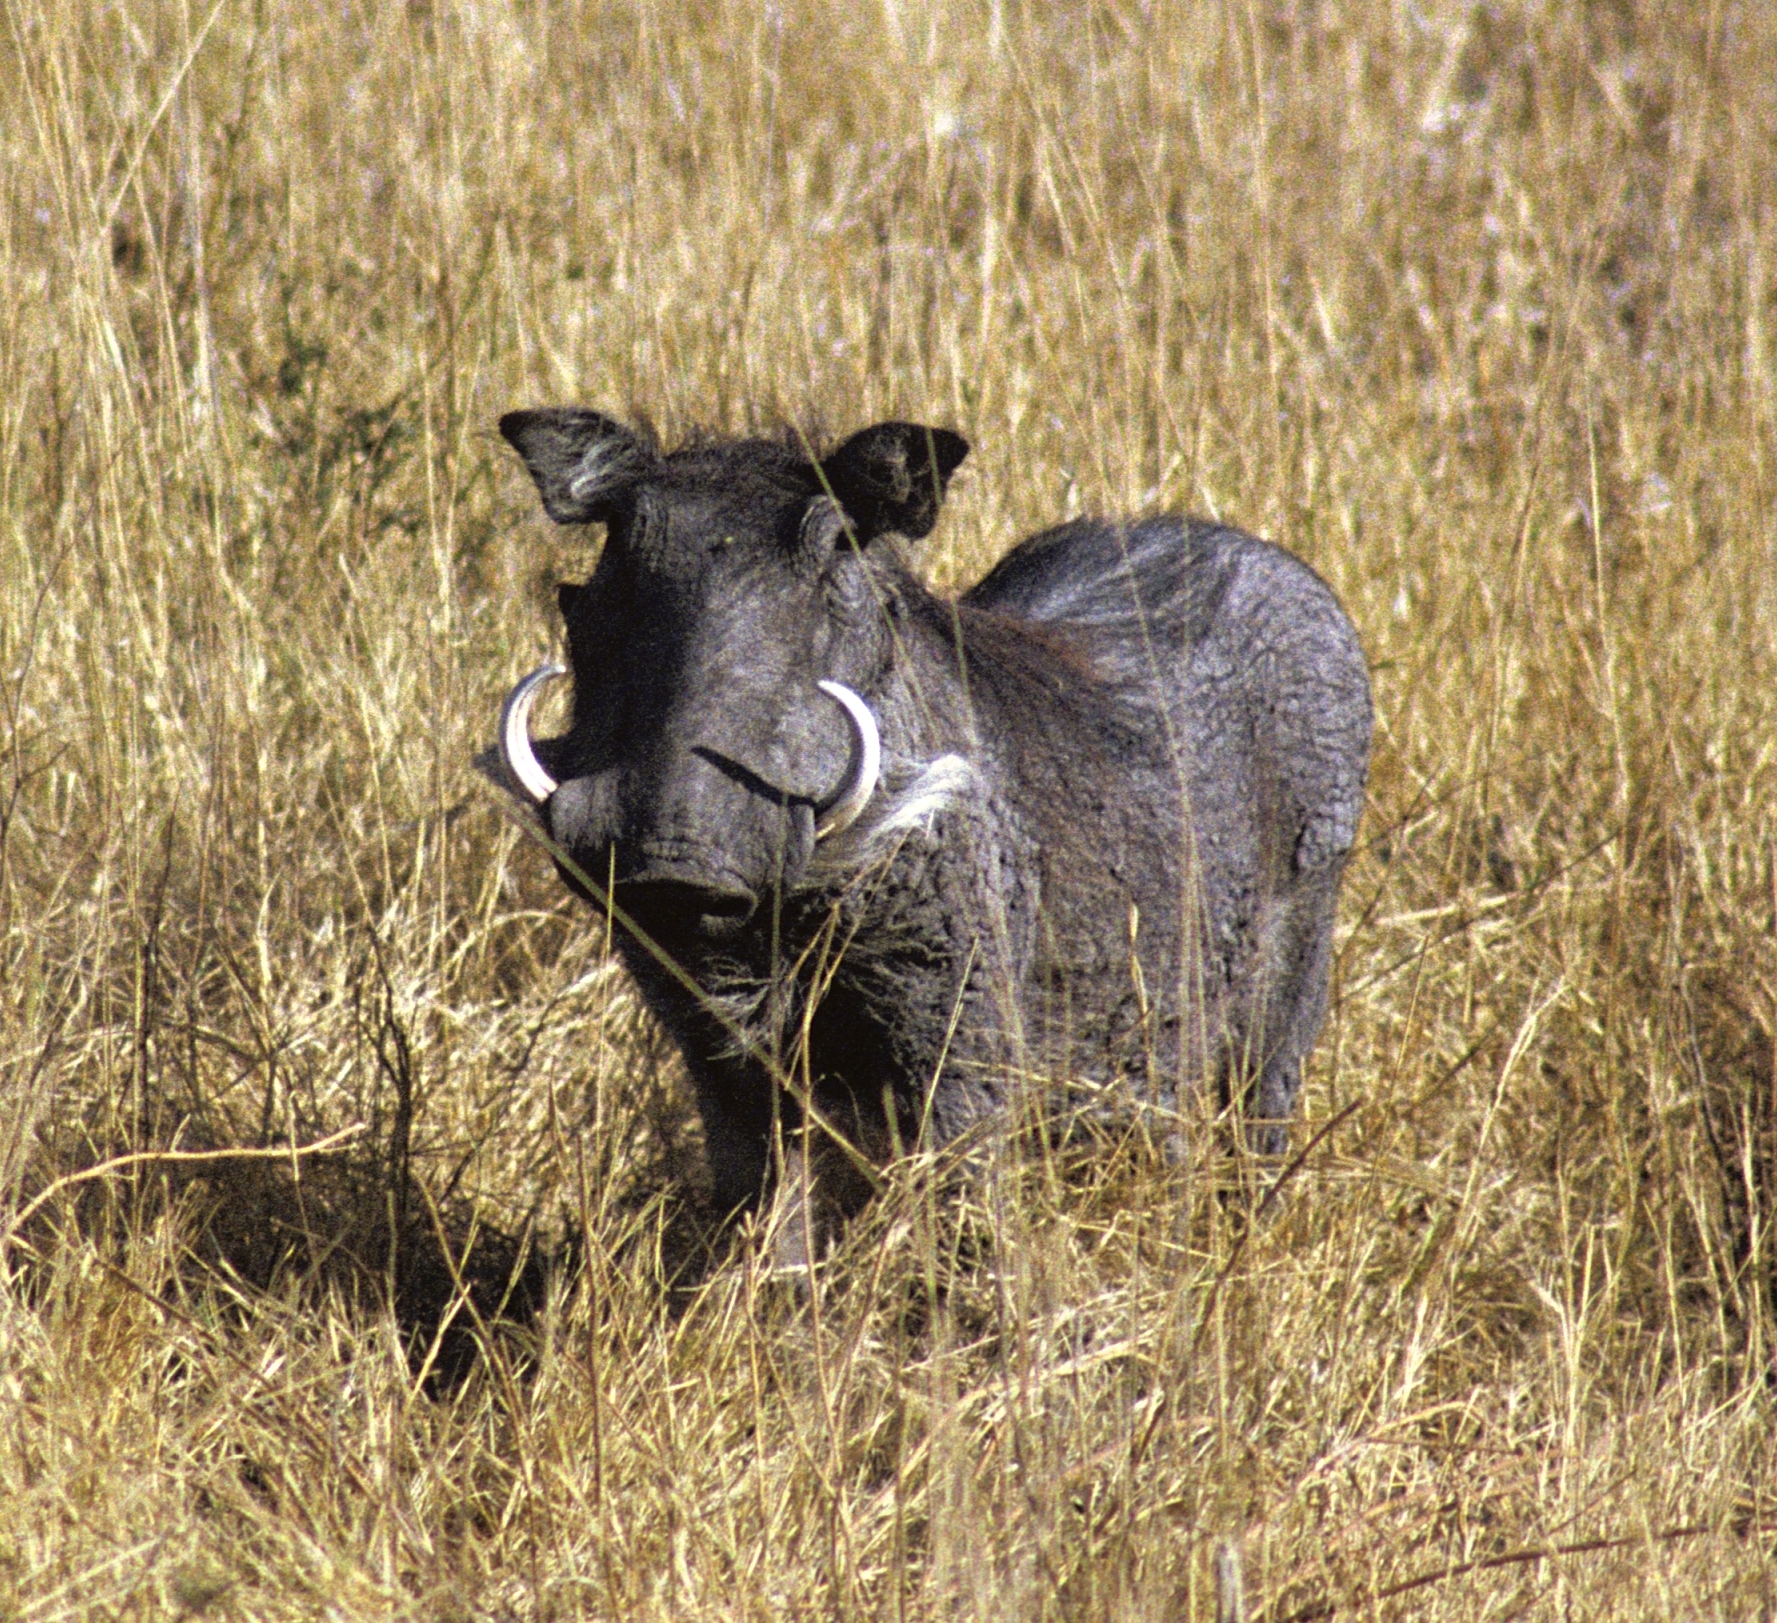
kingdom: Animalia
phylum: Chordata
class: Mammalia
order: Artiodactyla
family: Suidae
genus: Phacochoerus
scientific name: Phacochoerus africanus
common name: Common warthog
